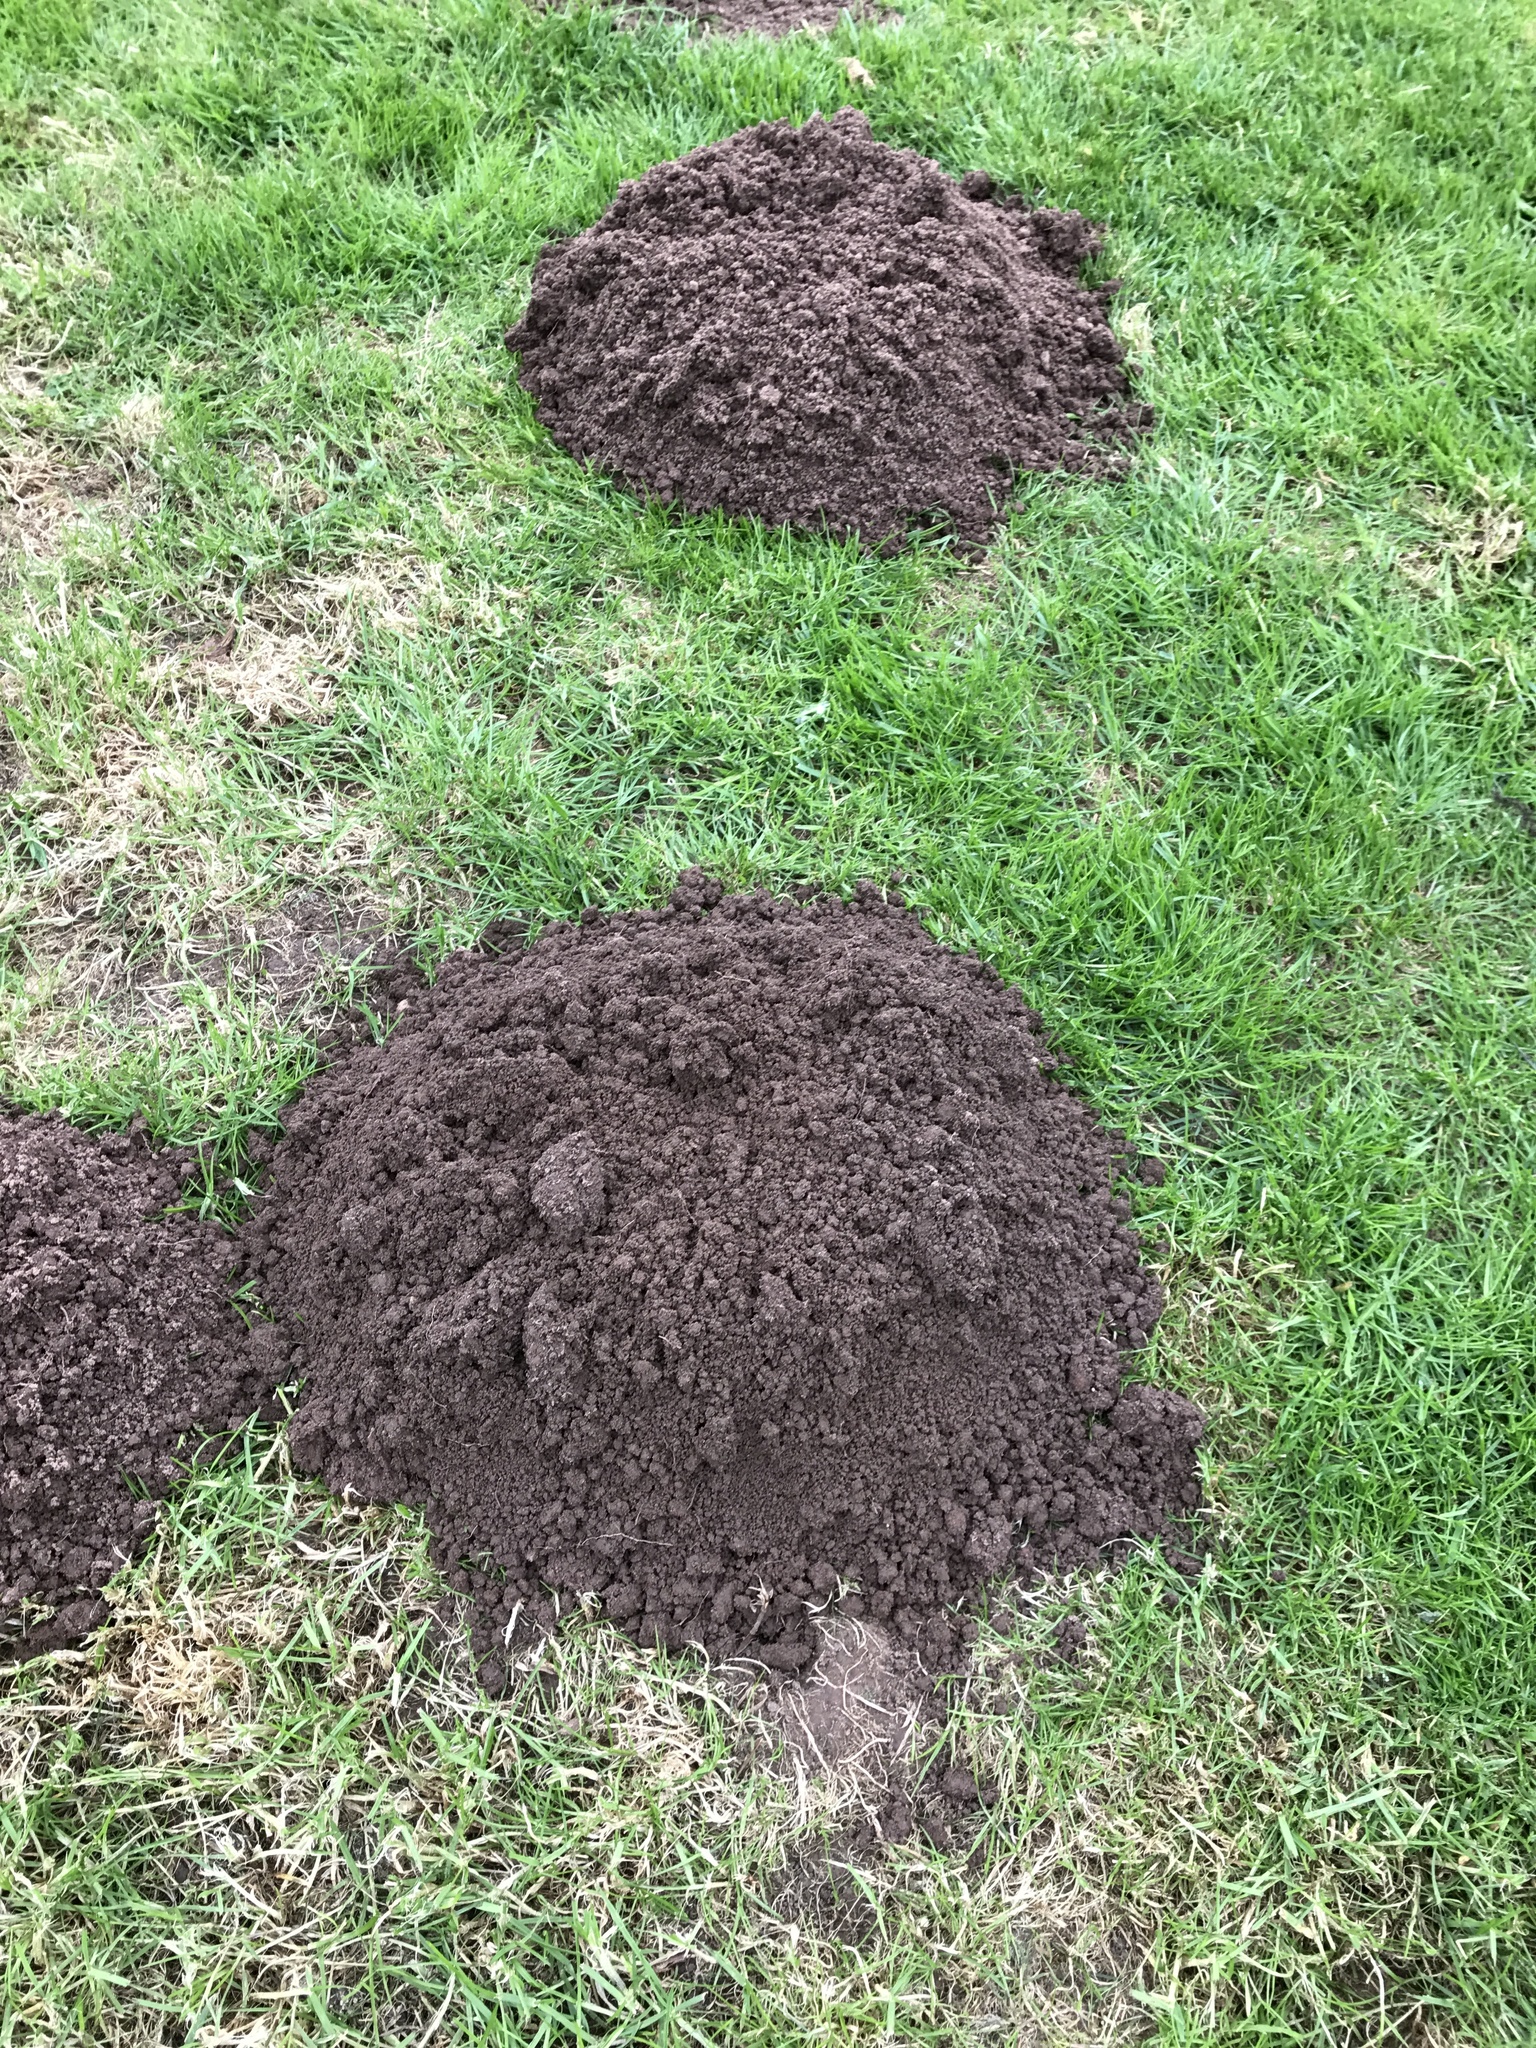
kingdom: Animalia
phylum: Chordata
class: Mammalia
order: Soricomorpha
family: Talpidae
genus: Talpa
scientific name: Talpa europaea
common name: European mole
